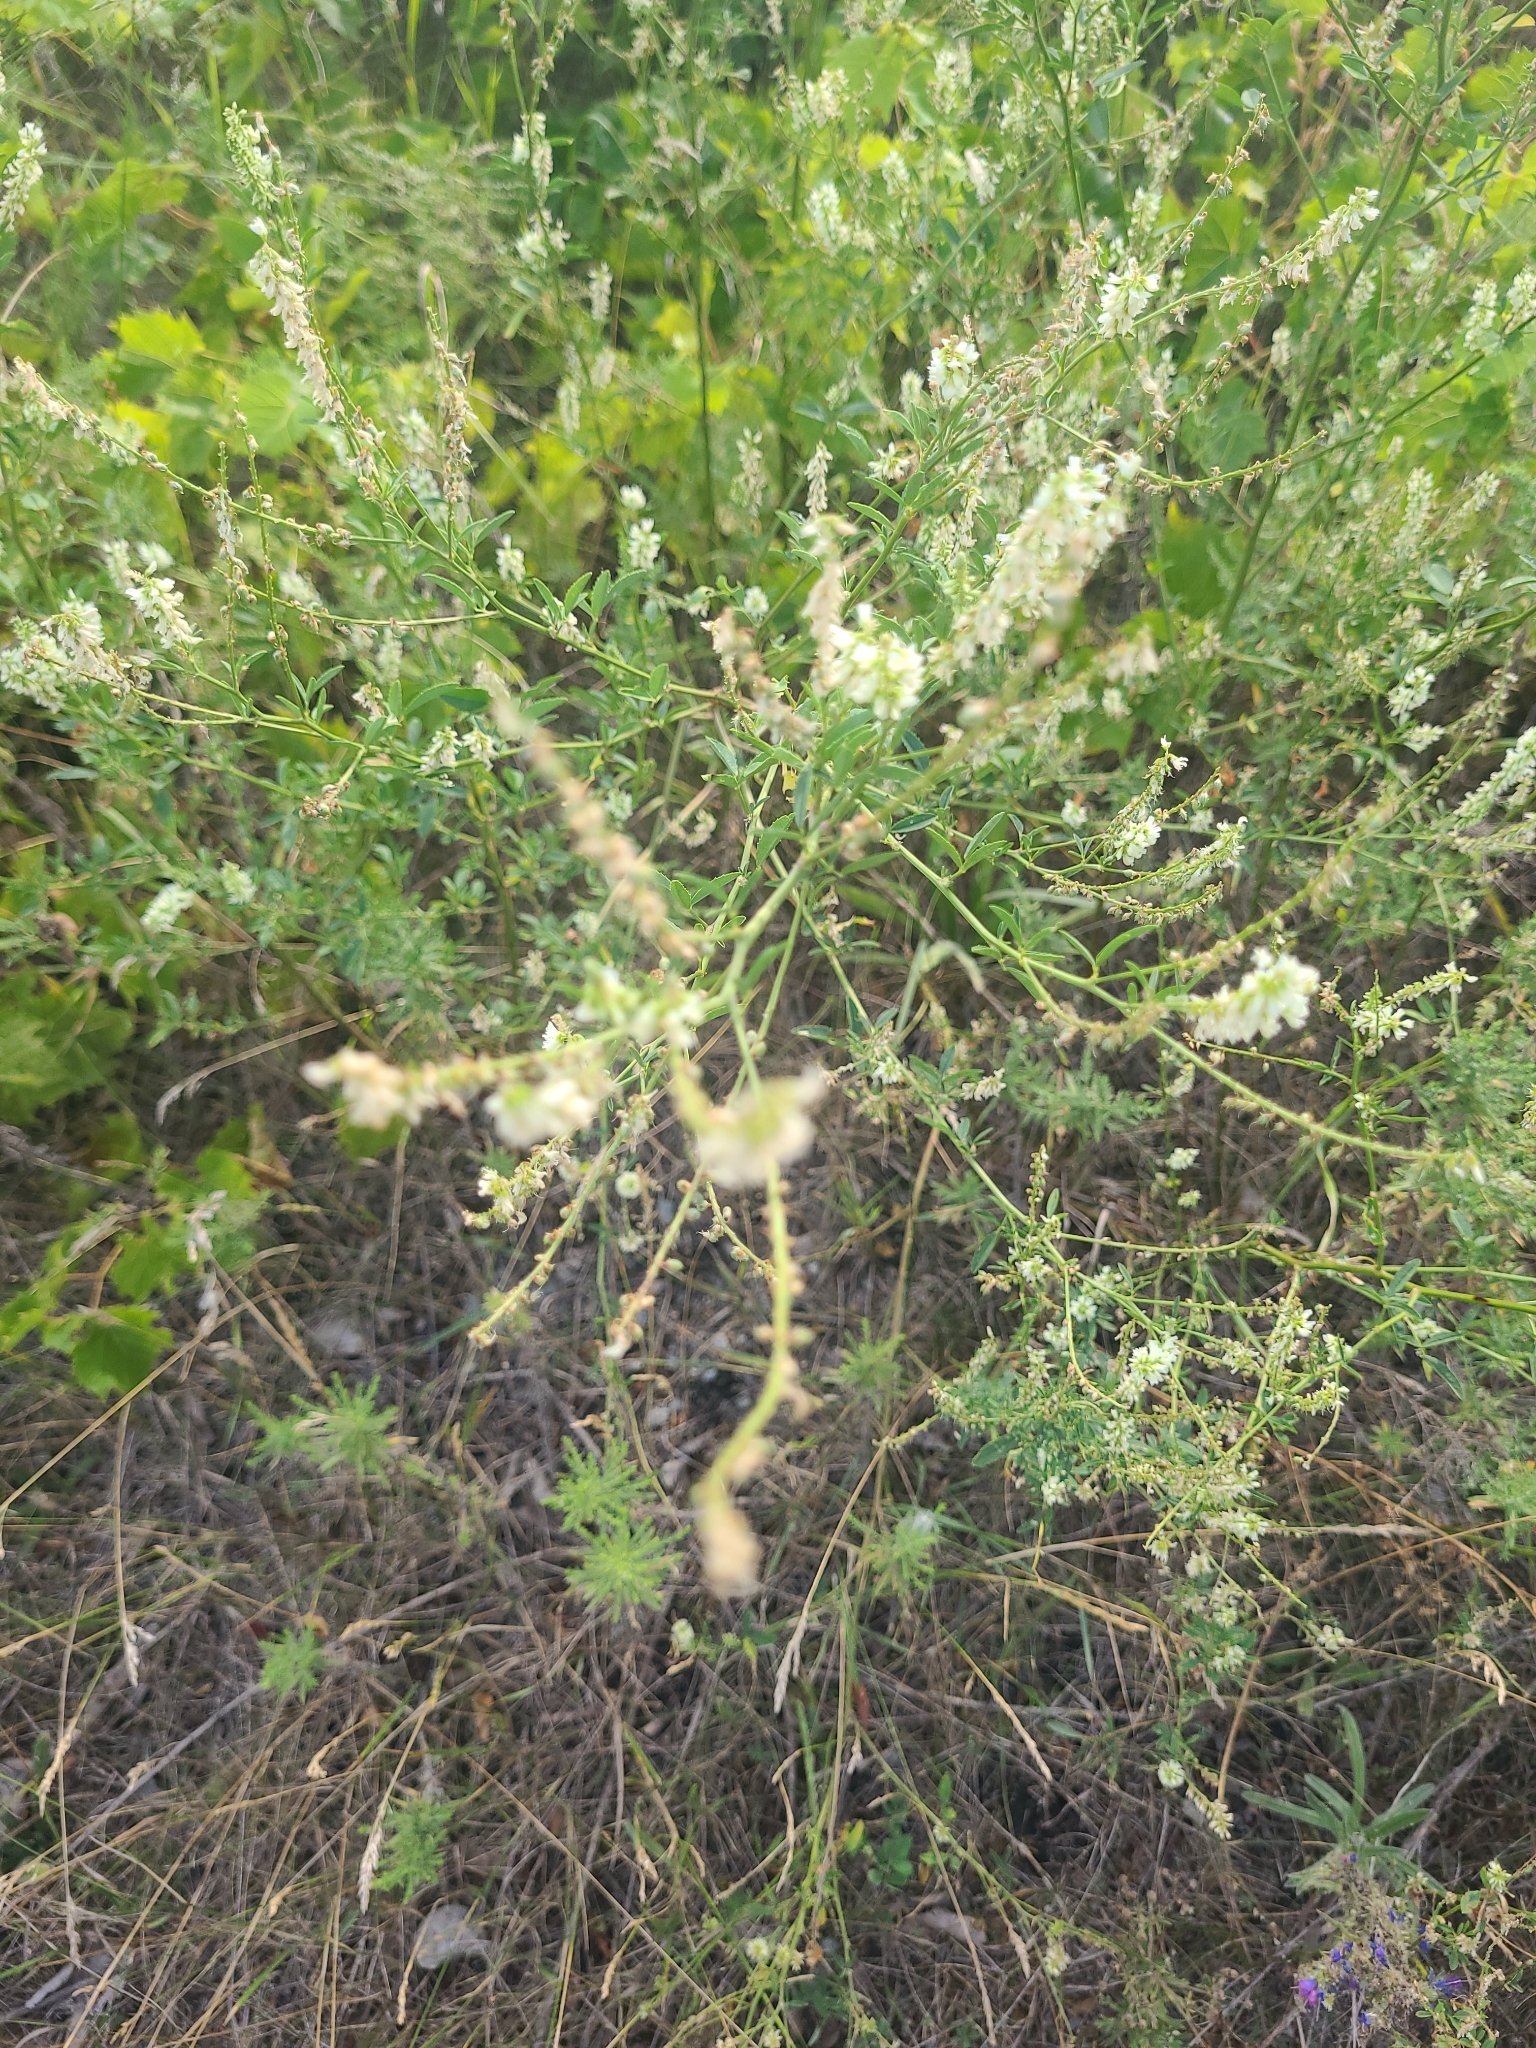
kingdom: Plantae
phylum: Tracheophyta
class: Magnoliopsida
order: Fabales
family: Fabaceae
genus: Melilotus
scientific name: Melilotus albus
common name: White melilot
